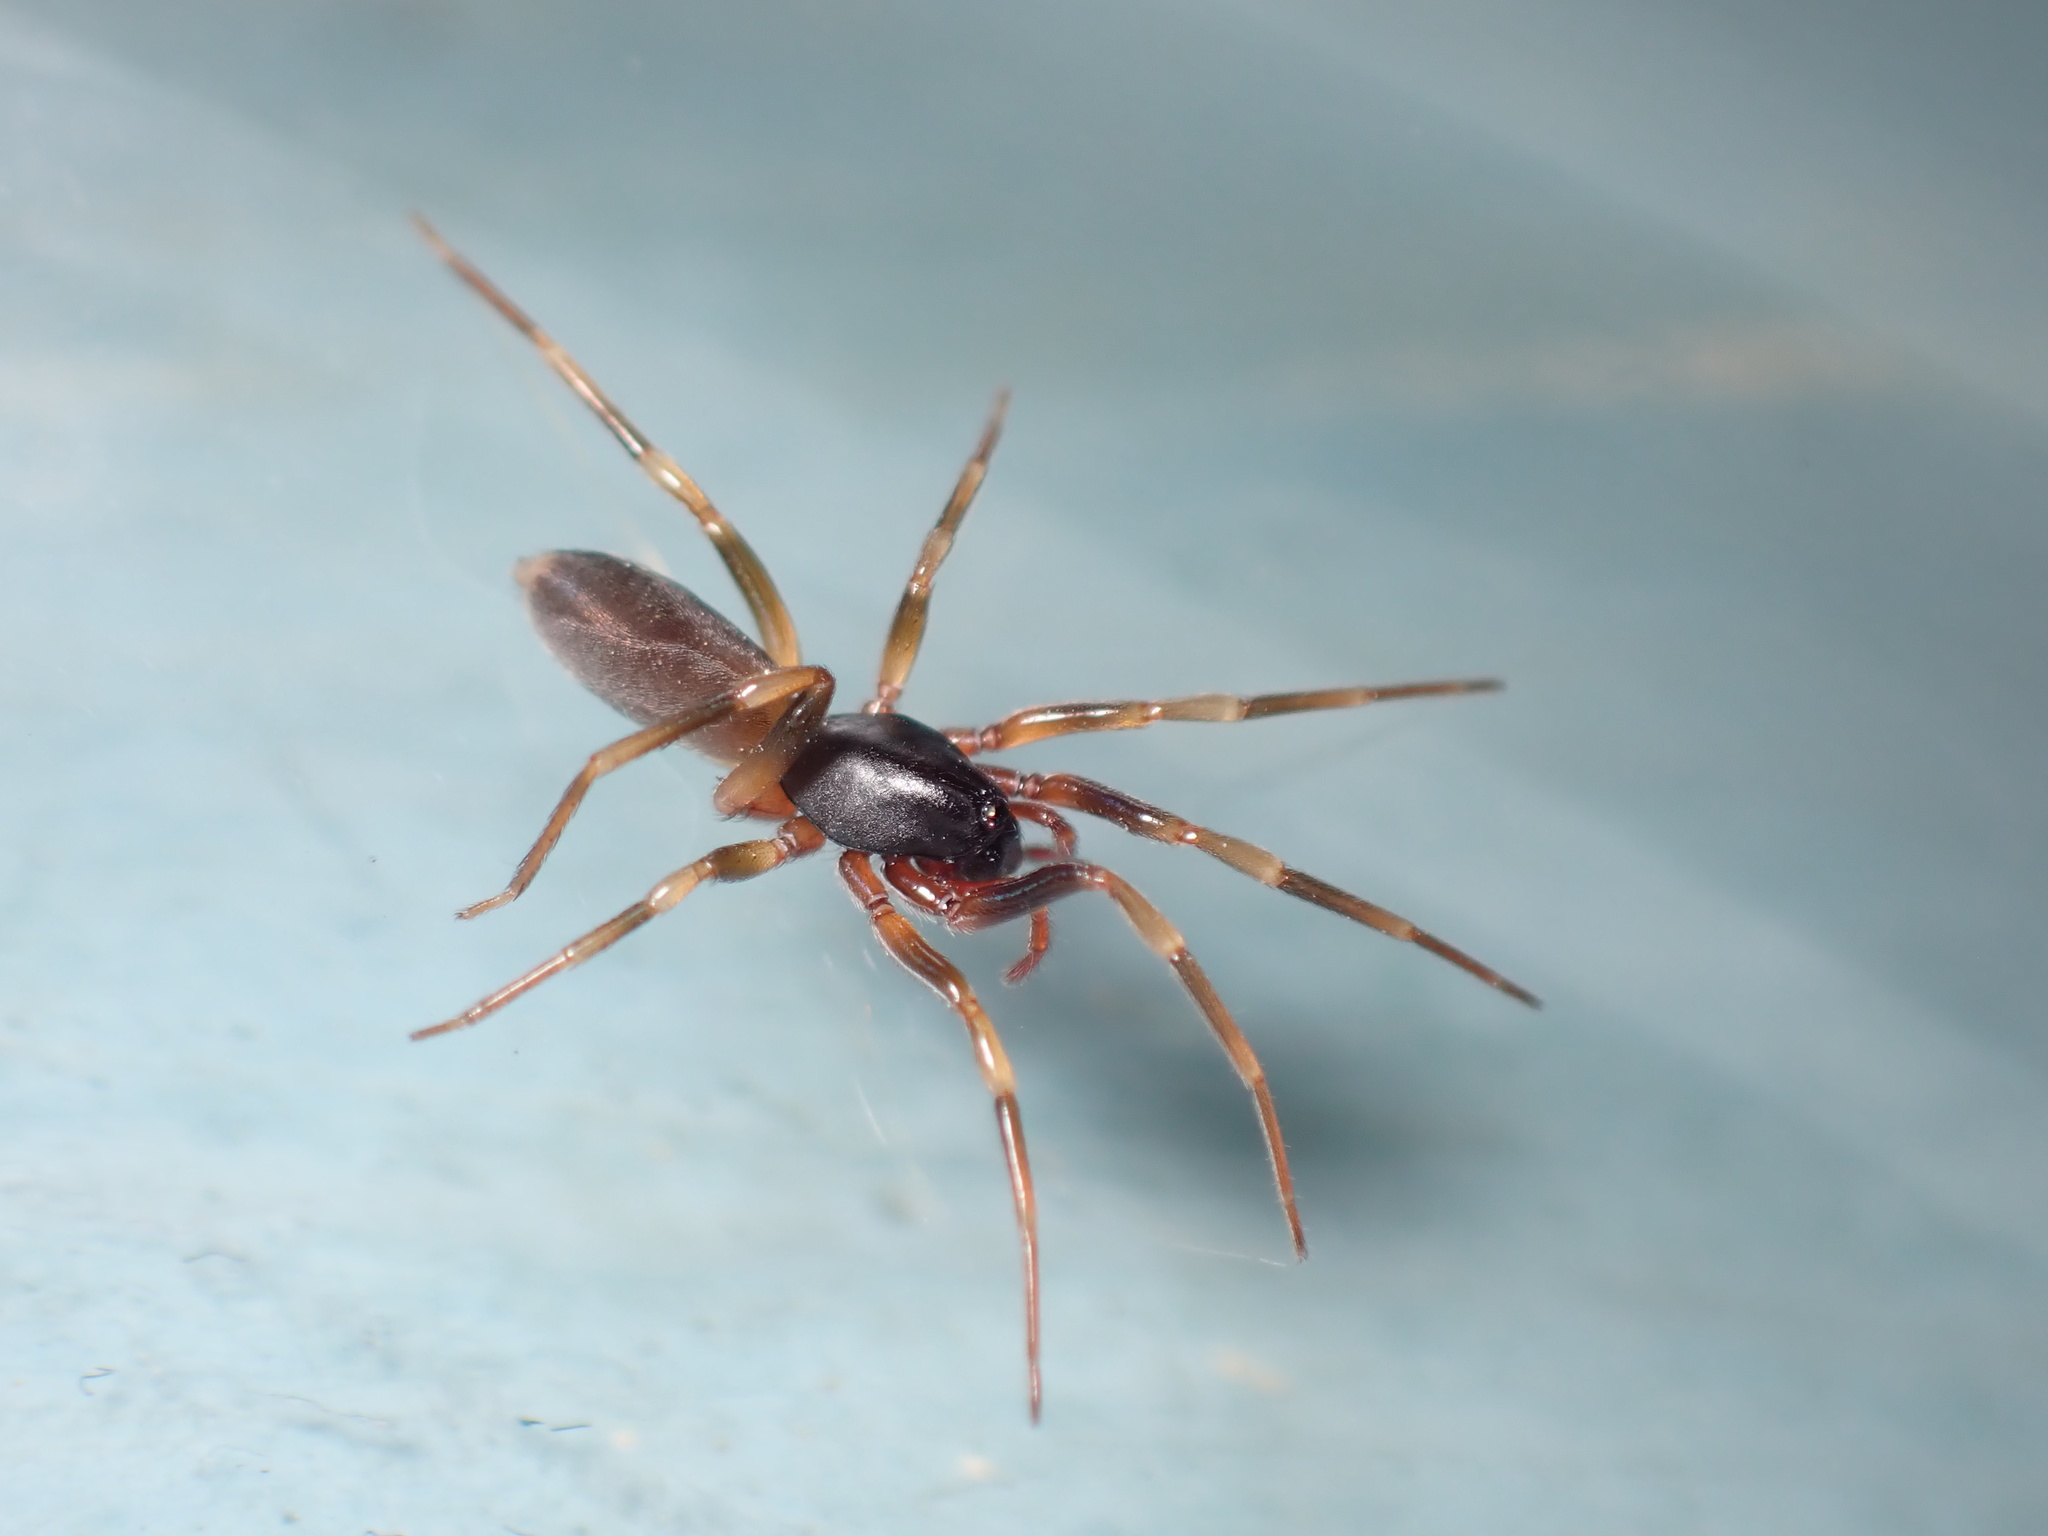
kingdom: Animalia
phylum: Arthropoda
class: Arachnida
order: Araneae
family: Dysderidae
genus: Harpactea
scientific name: Harpactea hombergi
